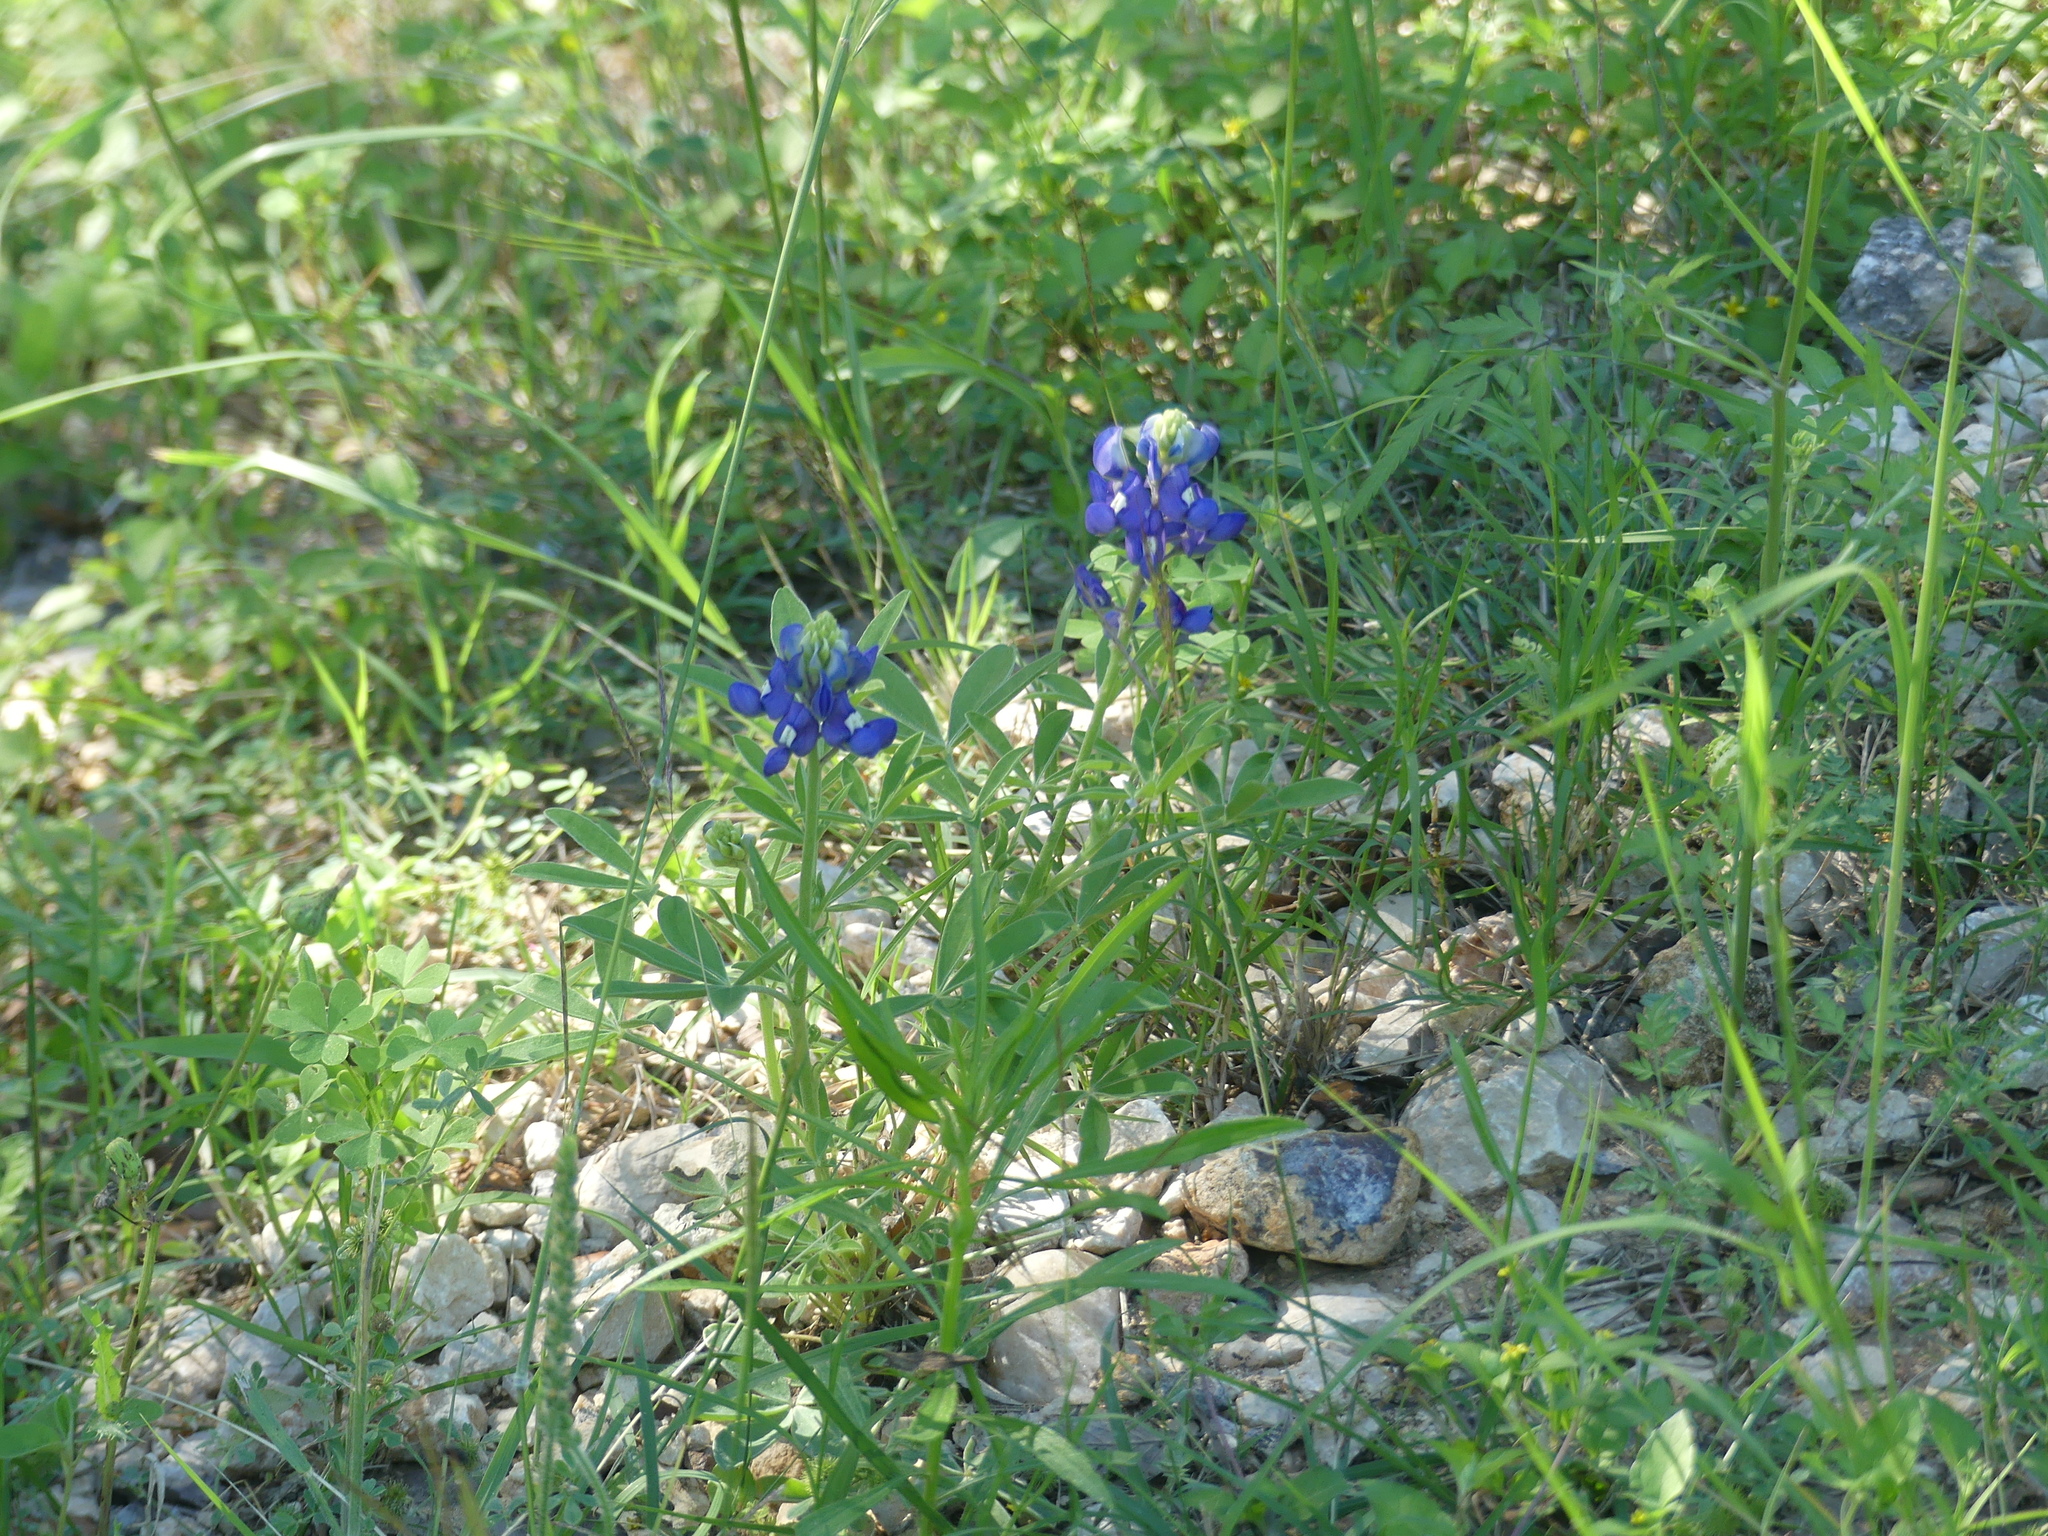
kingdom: Plantae
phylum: Tracheophyta
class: Magnoliopsida
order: Fabales
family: Fabaceae
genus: Lupinus
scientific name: Lupinus texensis
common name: Texas bluebonnet
